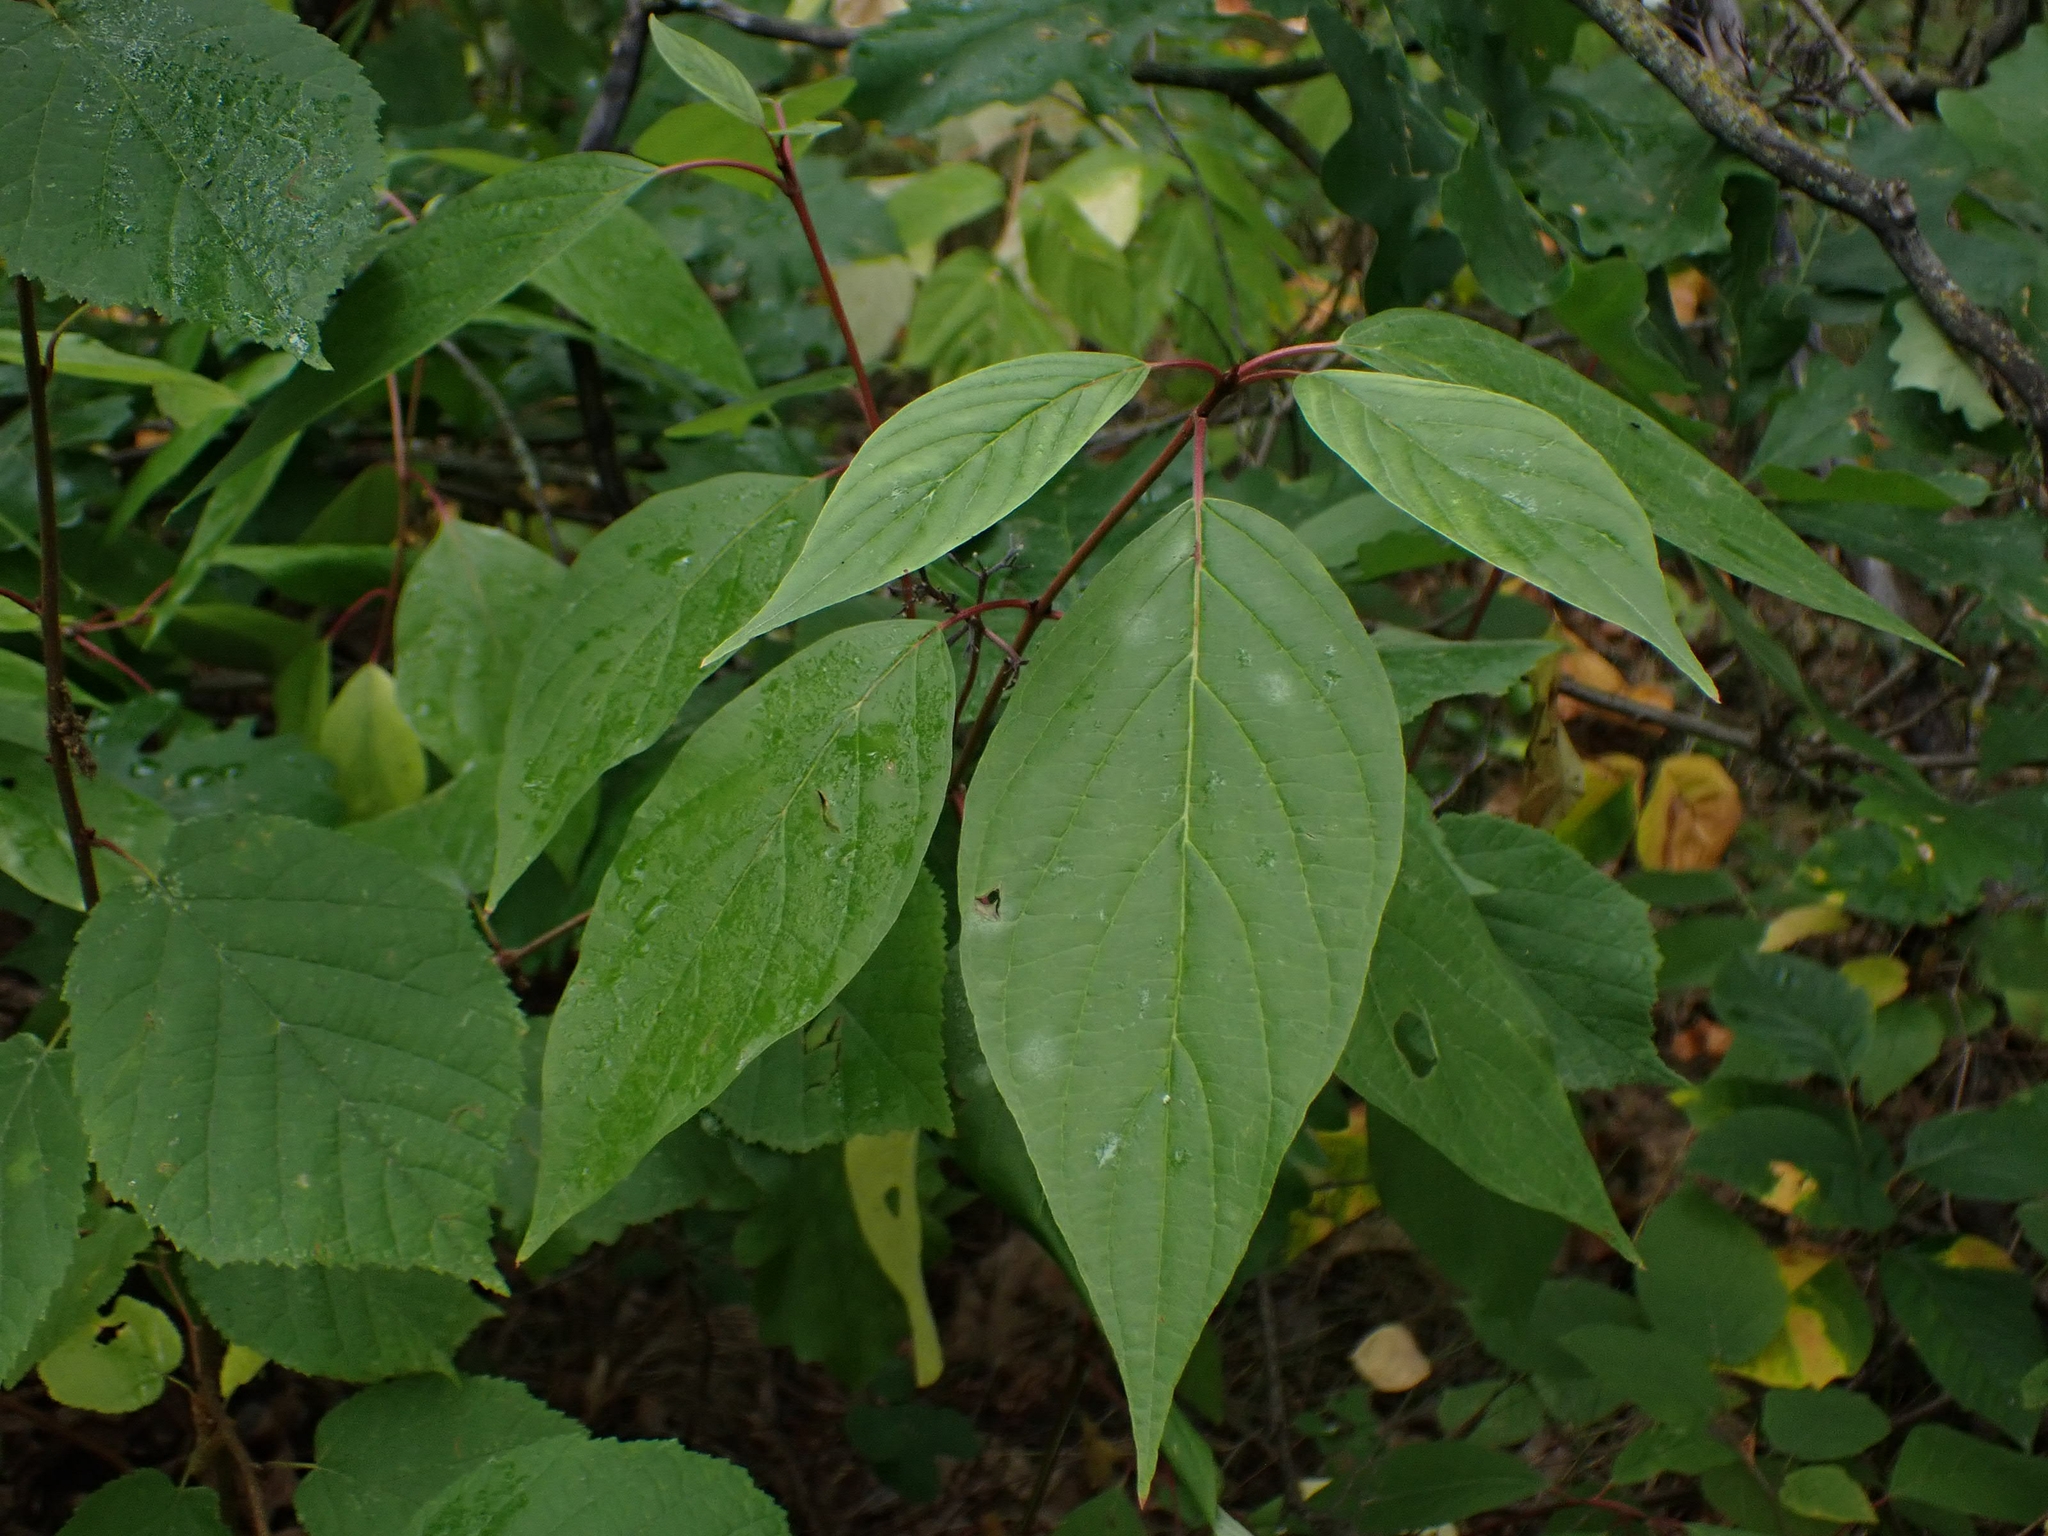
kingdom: Plantae
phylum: Tracheophyta
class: Magnoliopsida
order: Cornales
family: Cornaceae
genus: Cornus
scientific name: Cornus sericea
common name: Red-osier dogwood
